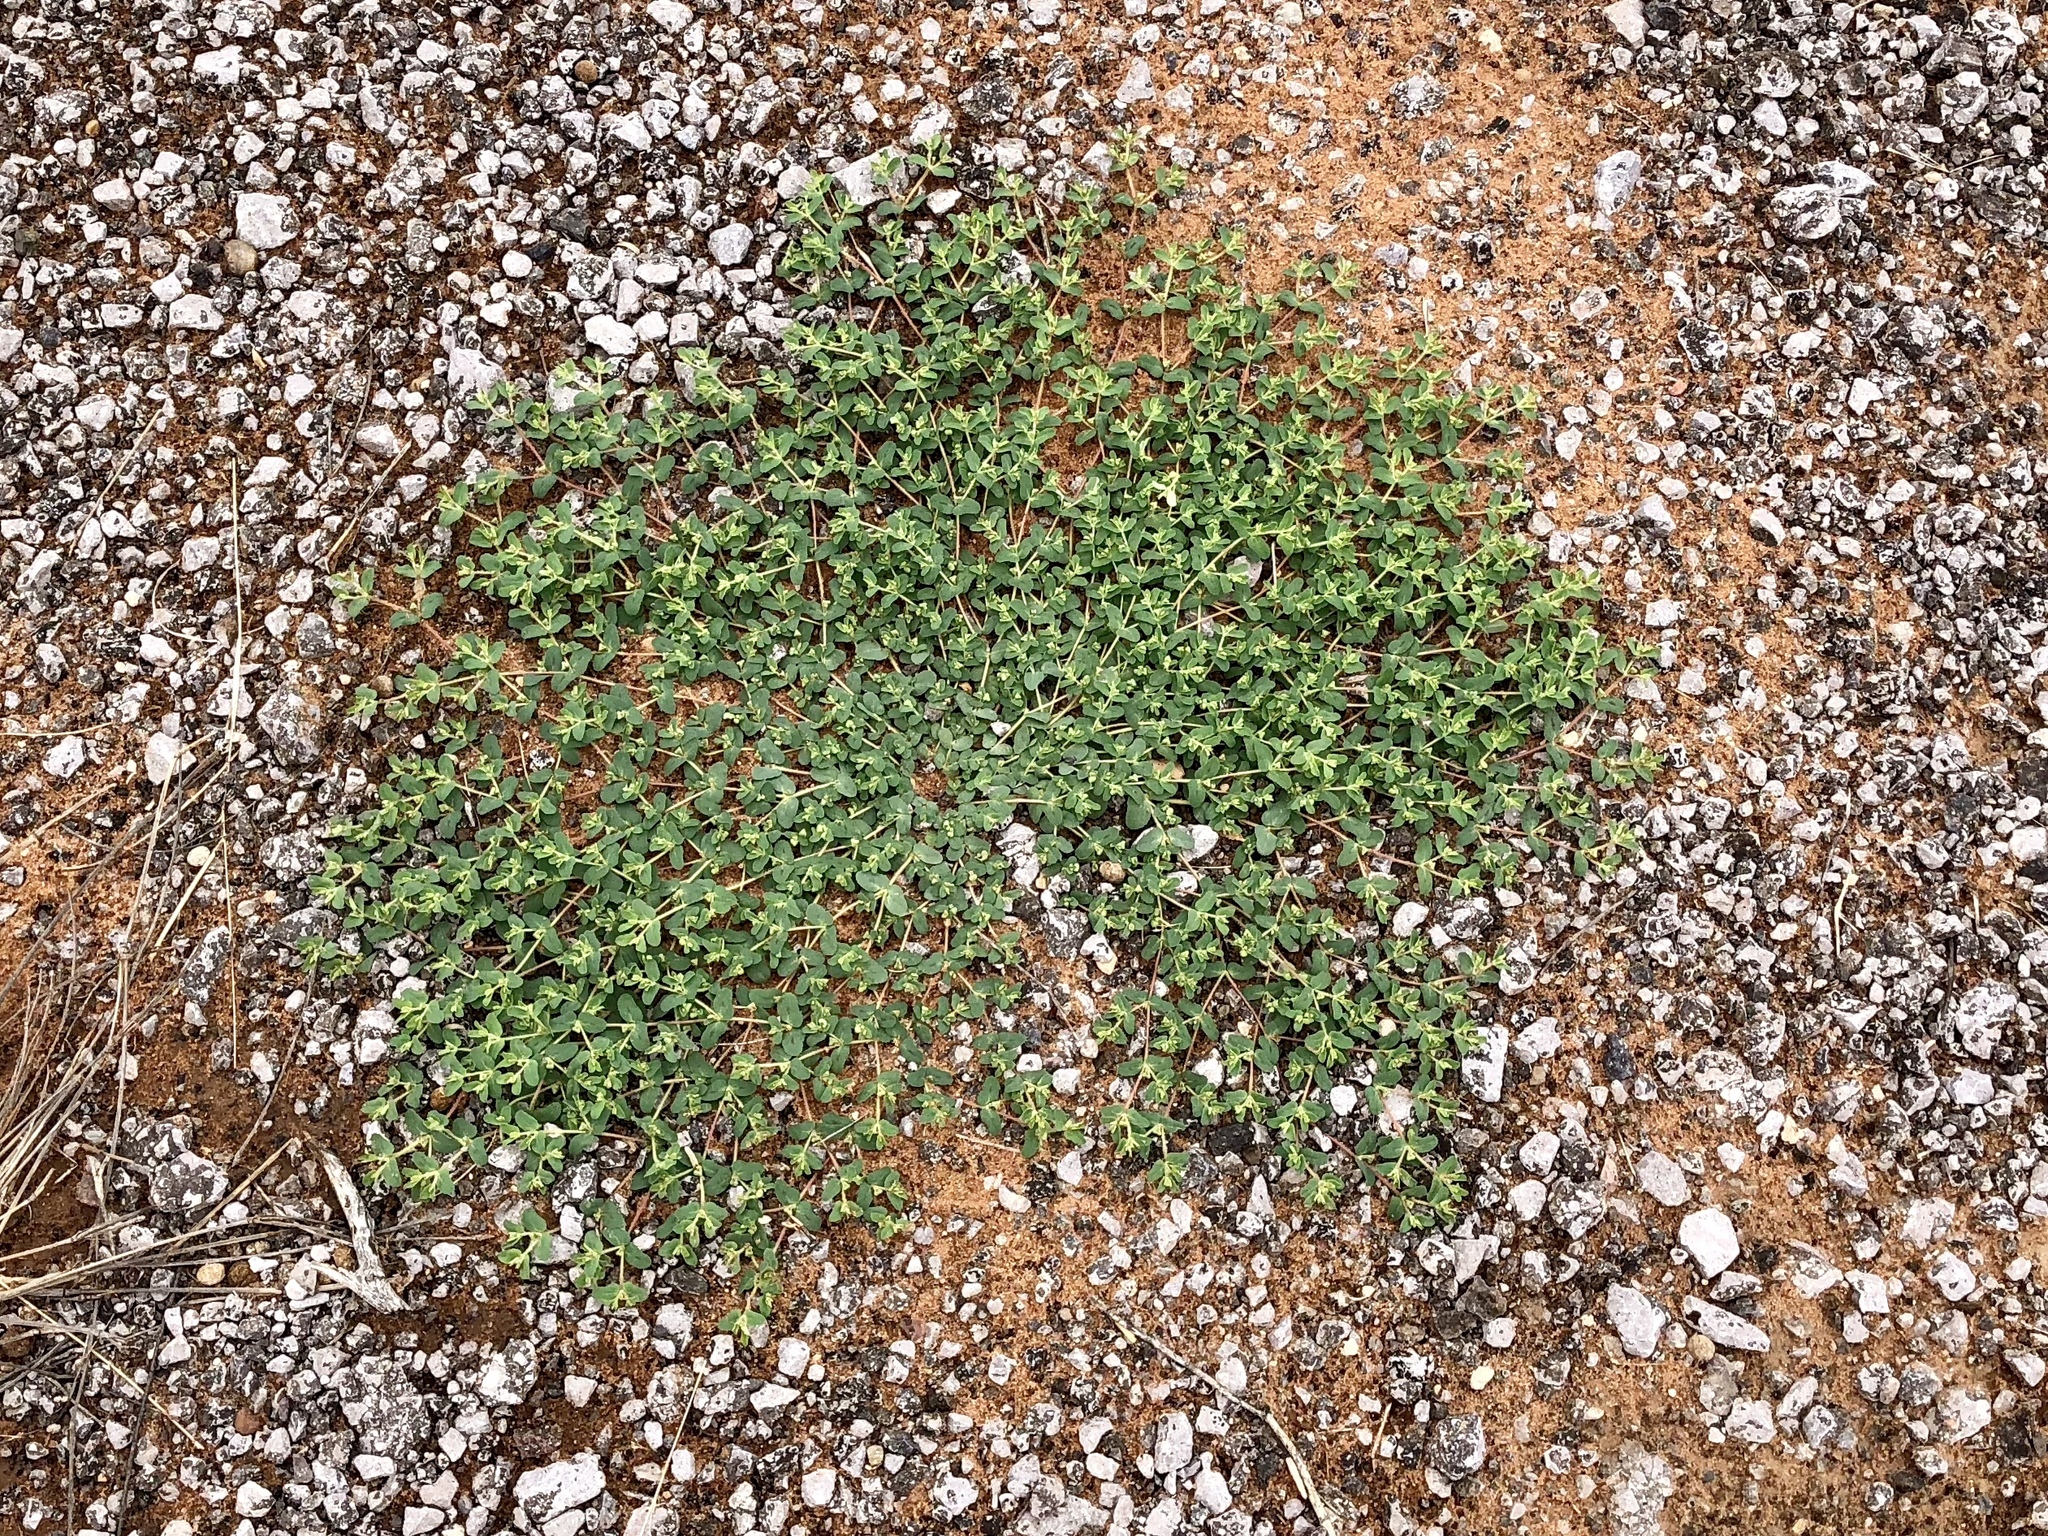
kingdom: Plantae
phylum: Tracheophyta
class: Magnoliopsida
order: Malpighiales
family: Euphorbiaceae
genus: Euphorbia
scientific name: Euphorbia serrula
